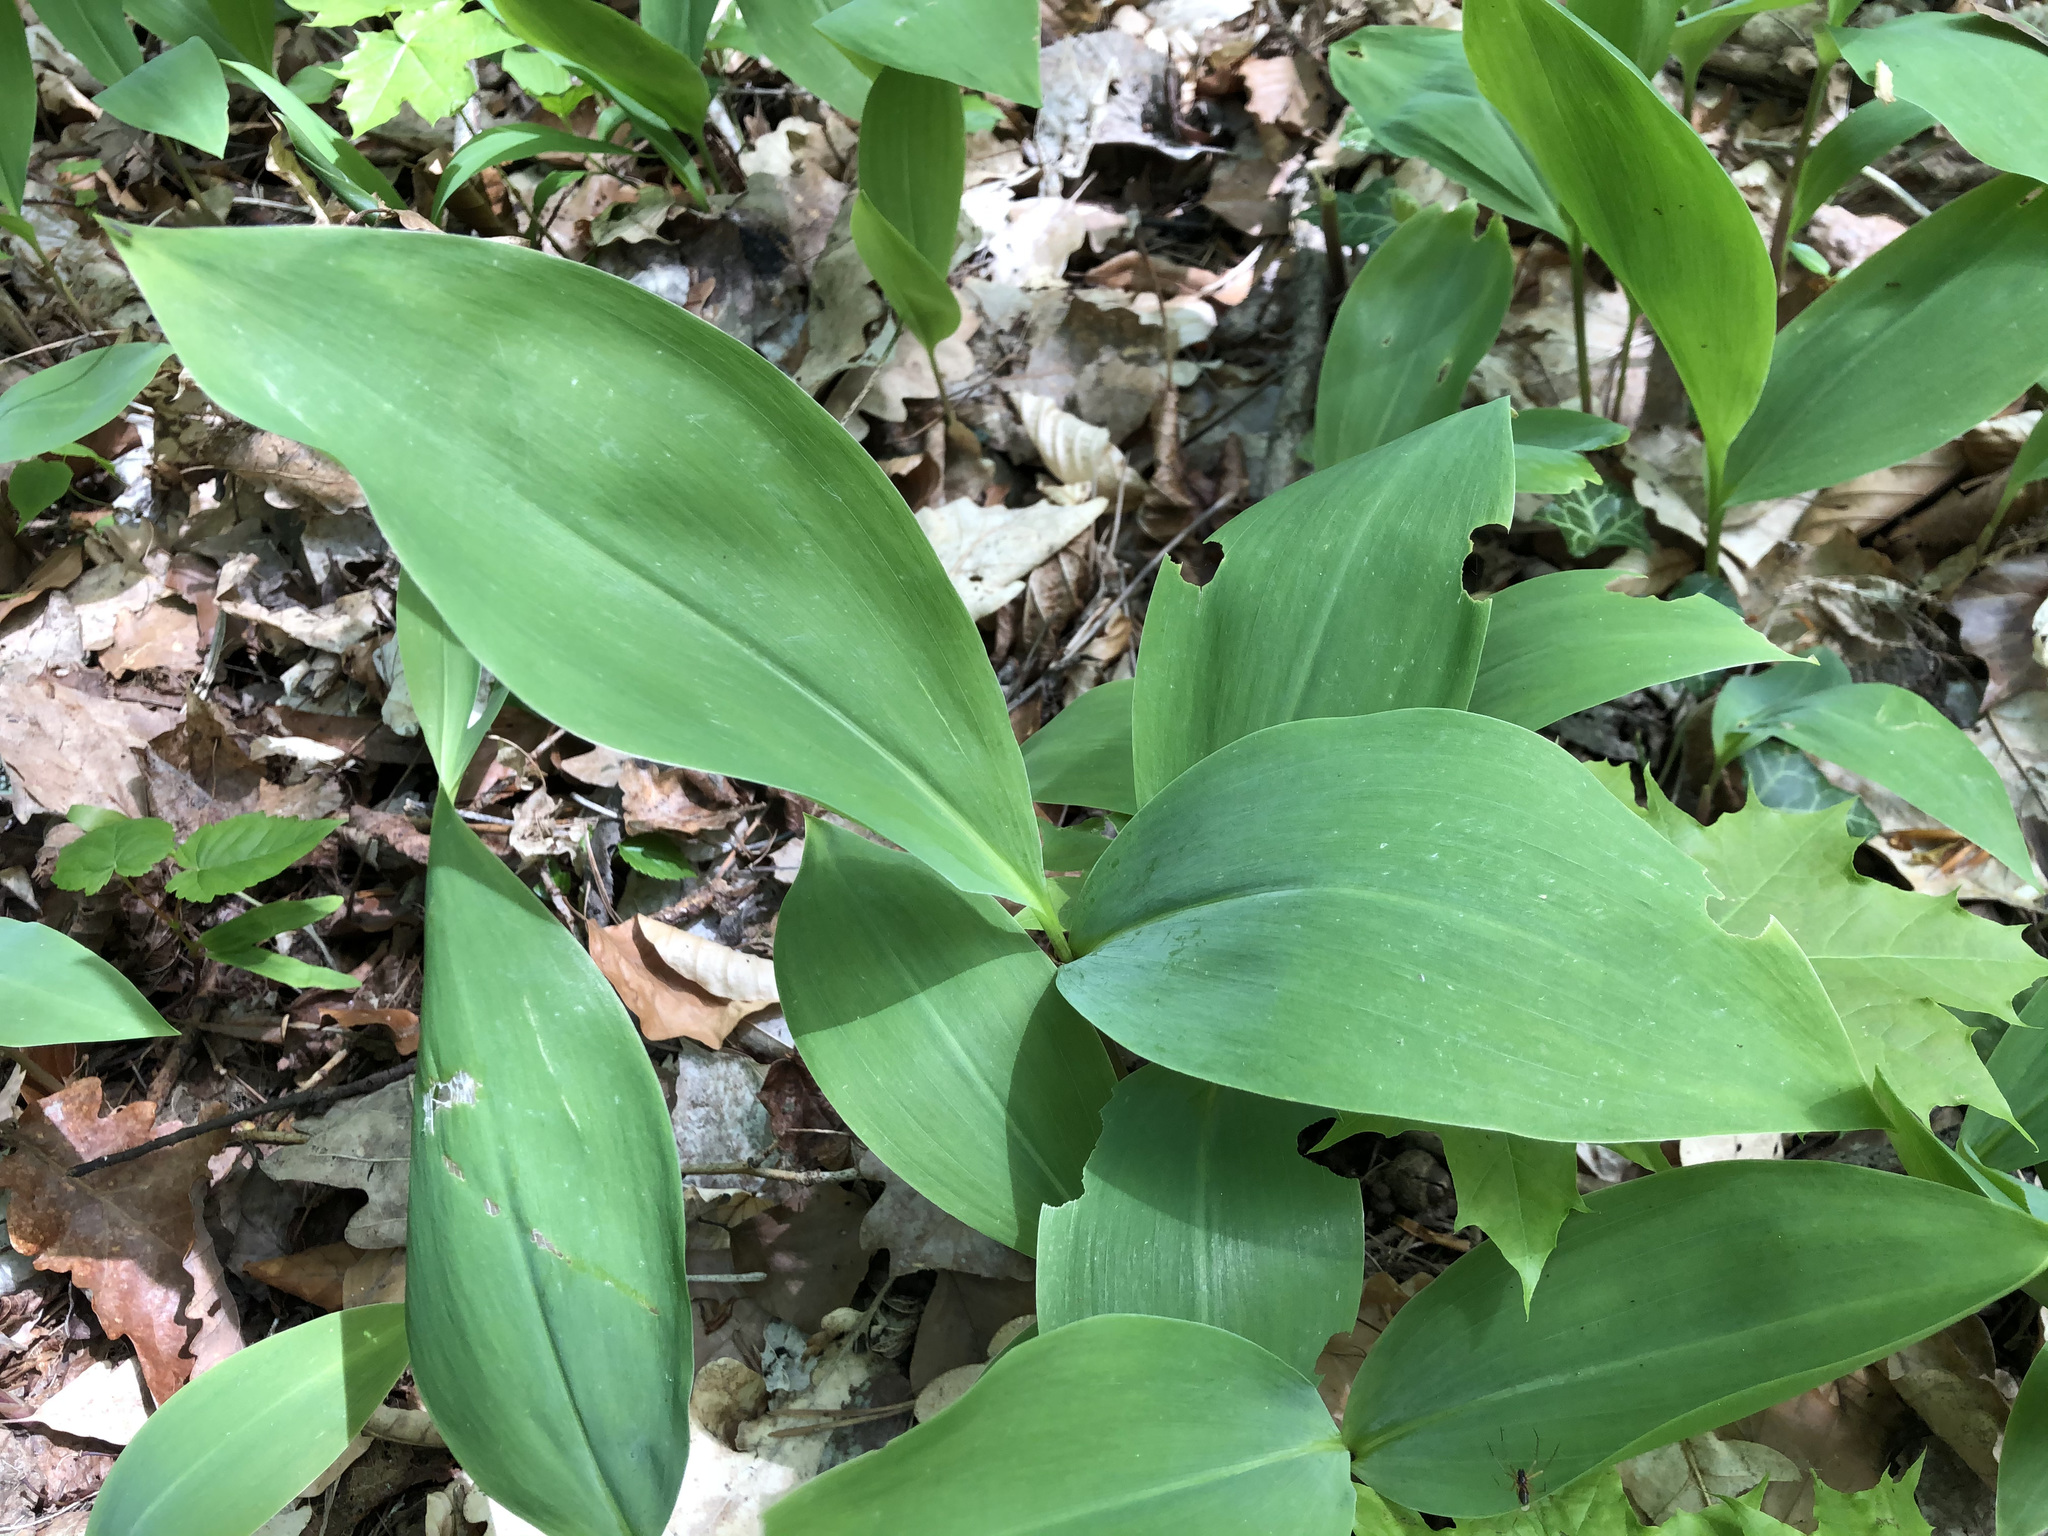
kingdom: Plantae
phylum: Tracheophyta
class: Liliopsida
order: Asparagales
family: Asparagaceae
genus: Convallaria
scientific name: Convallaria majalis
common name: Lily-of-the-valley
